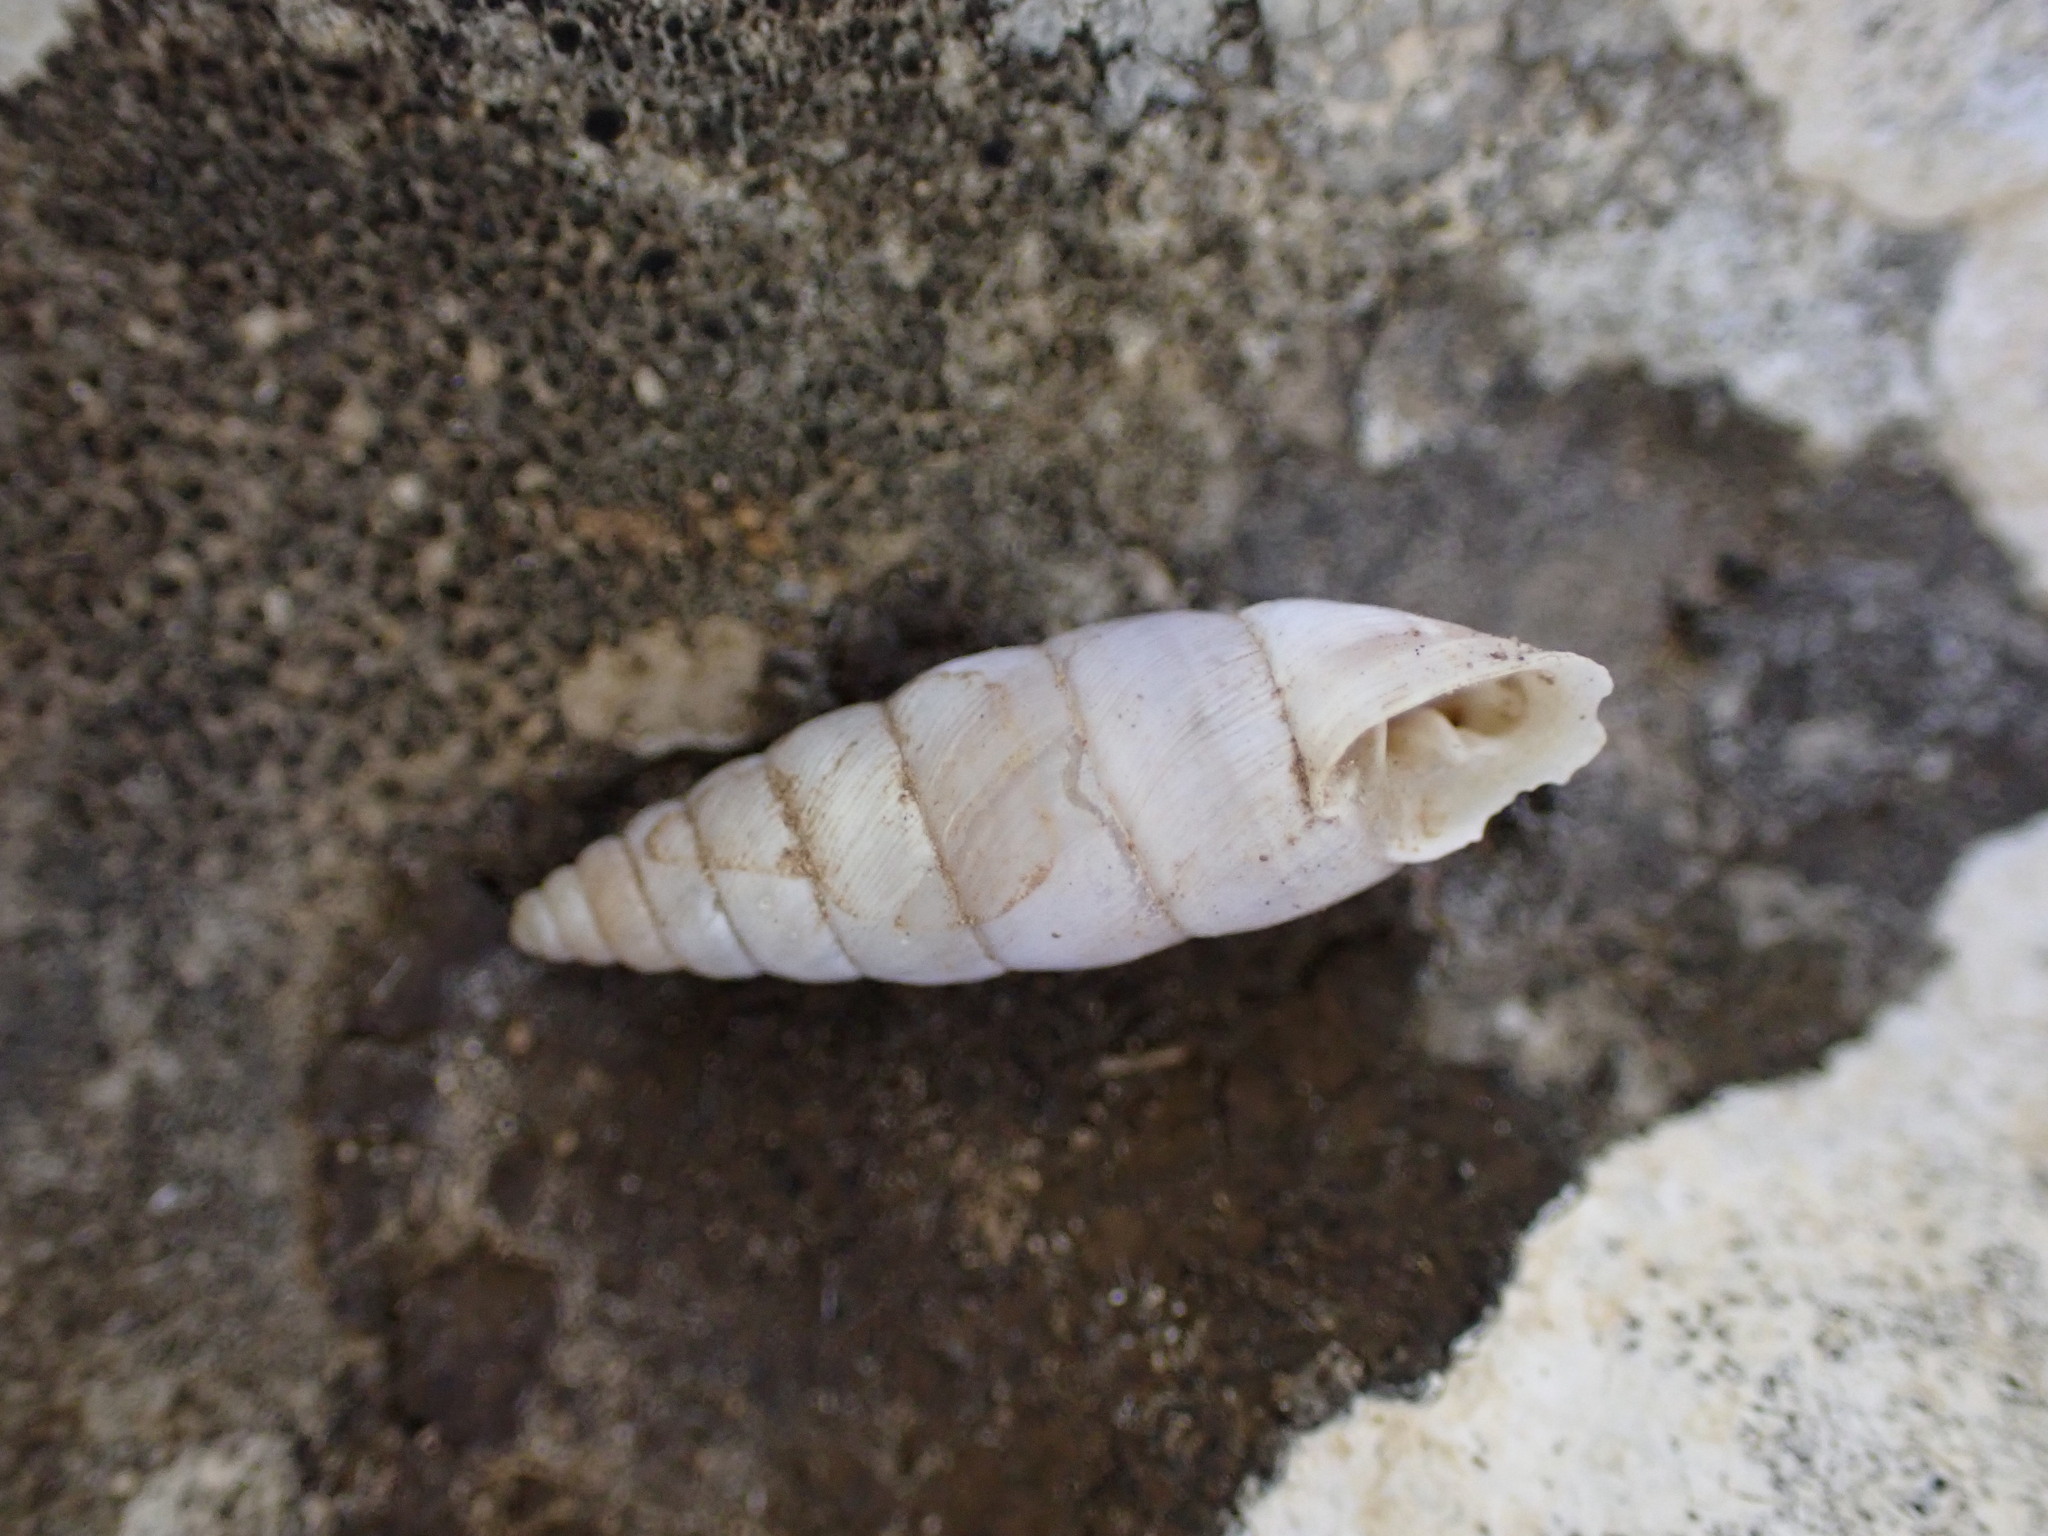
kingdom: Animalia
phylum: Mollusca
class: Gastropoda
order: Stylommatophora
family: Chondrinidae
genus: Solatopupa
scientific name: Solatopupa similis
